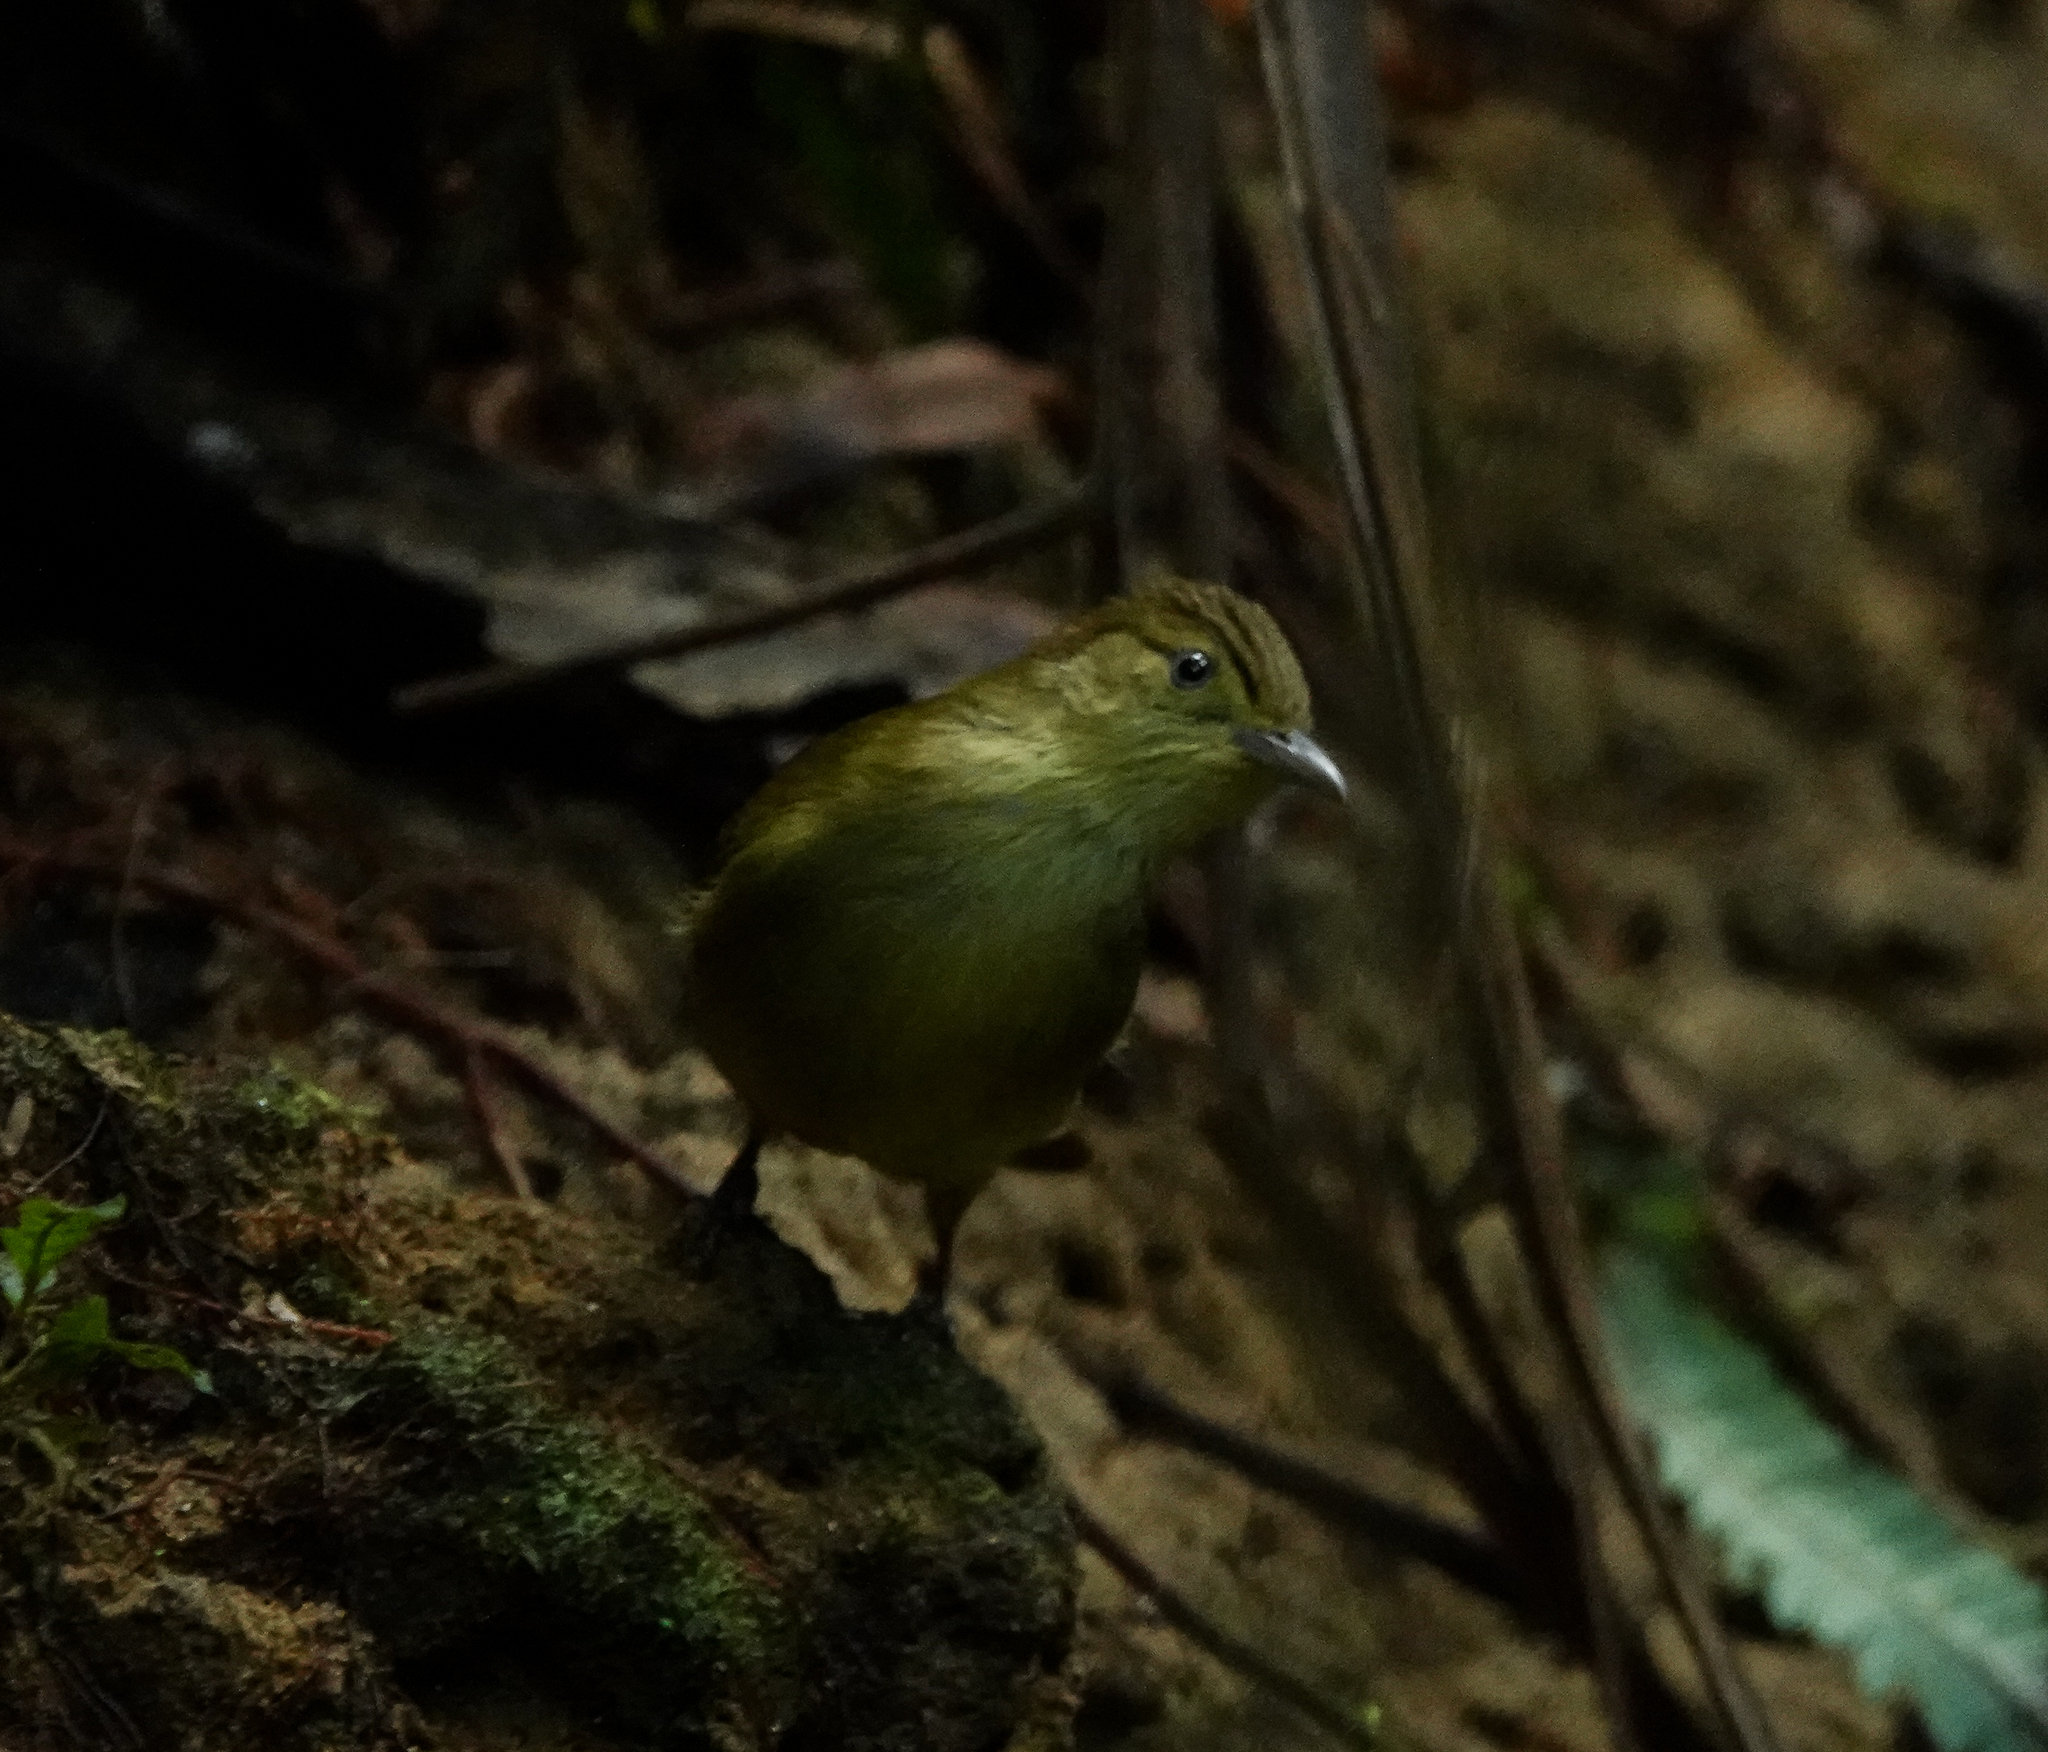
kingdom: Animalia
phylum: Chordata
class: Aves
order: Passeriformes
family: Pycnonotidae
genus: Iole
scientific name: Iole virescens
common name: Olive bulbul
